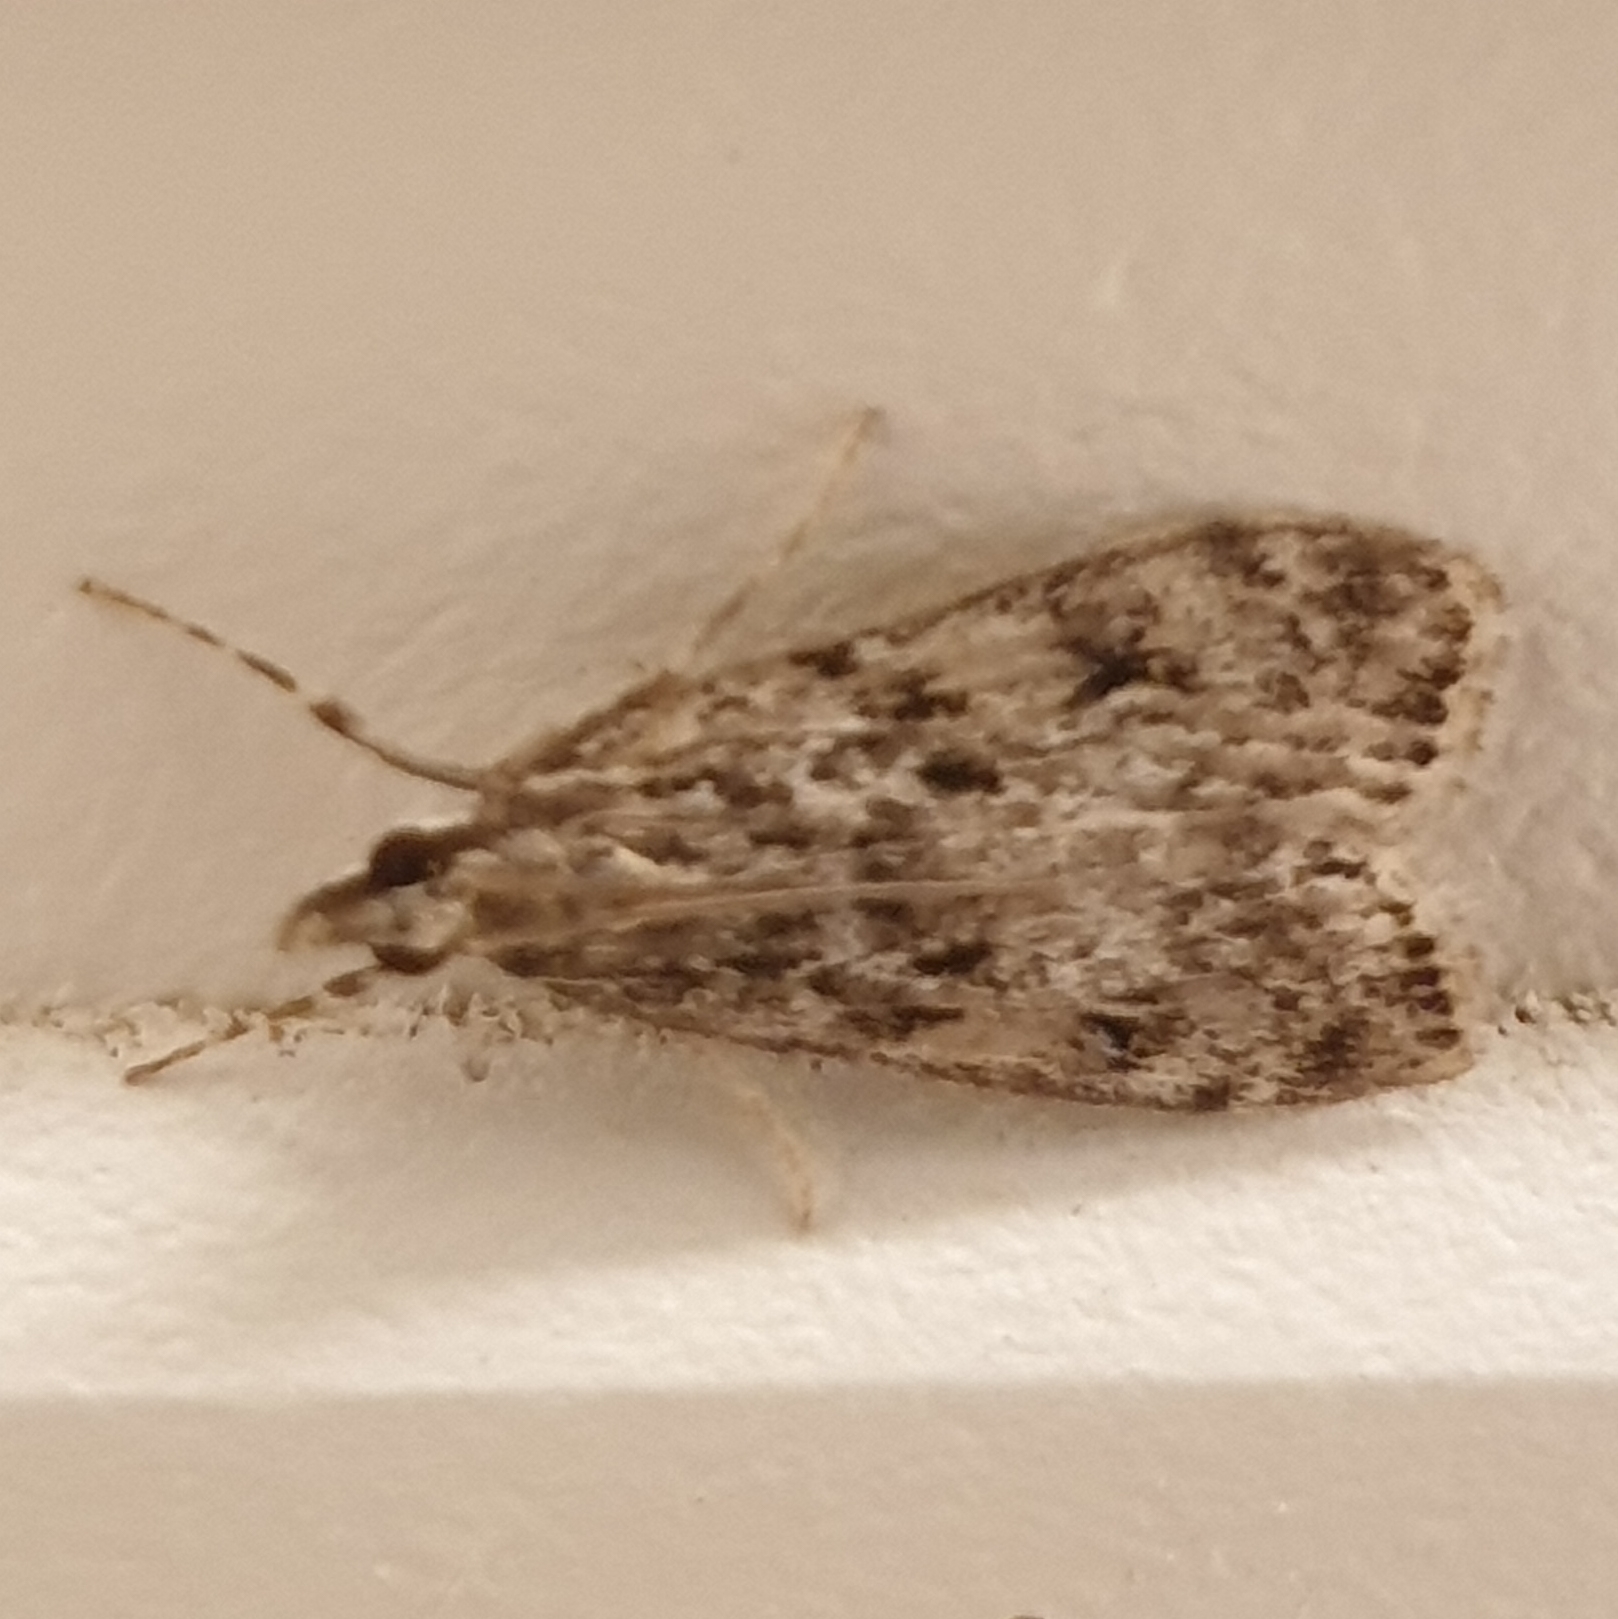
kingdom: Animalia
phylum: Arthropoda
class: Insecta
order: Lepidoptera
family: Crambidae
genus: Eudonia
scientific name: Eudonia truncicolella
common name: Ground-moss grey
